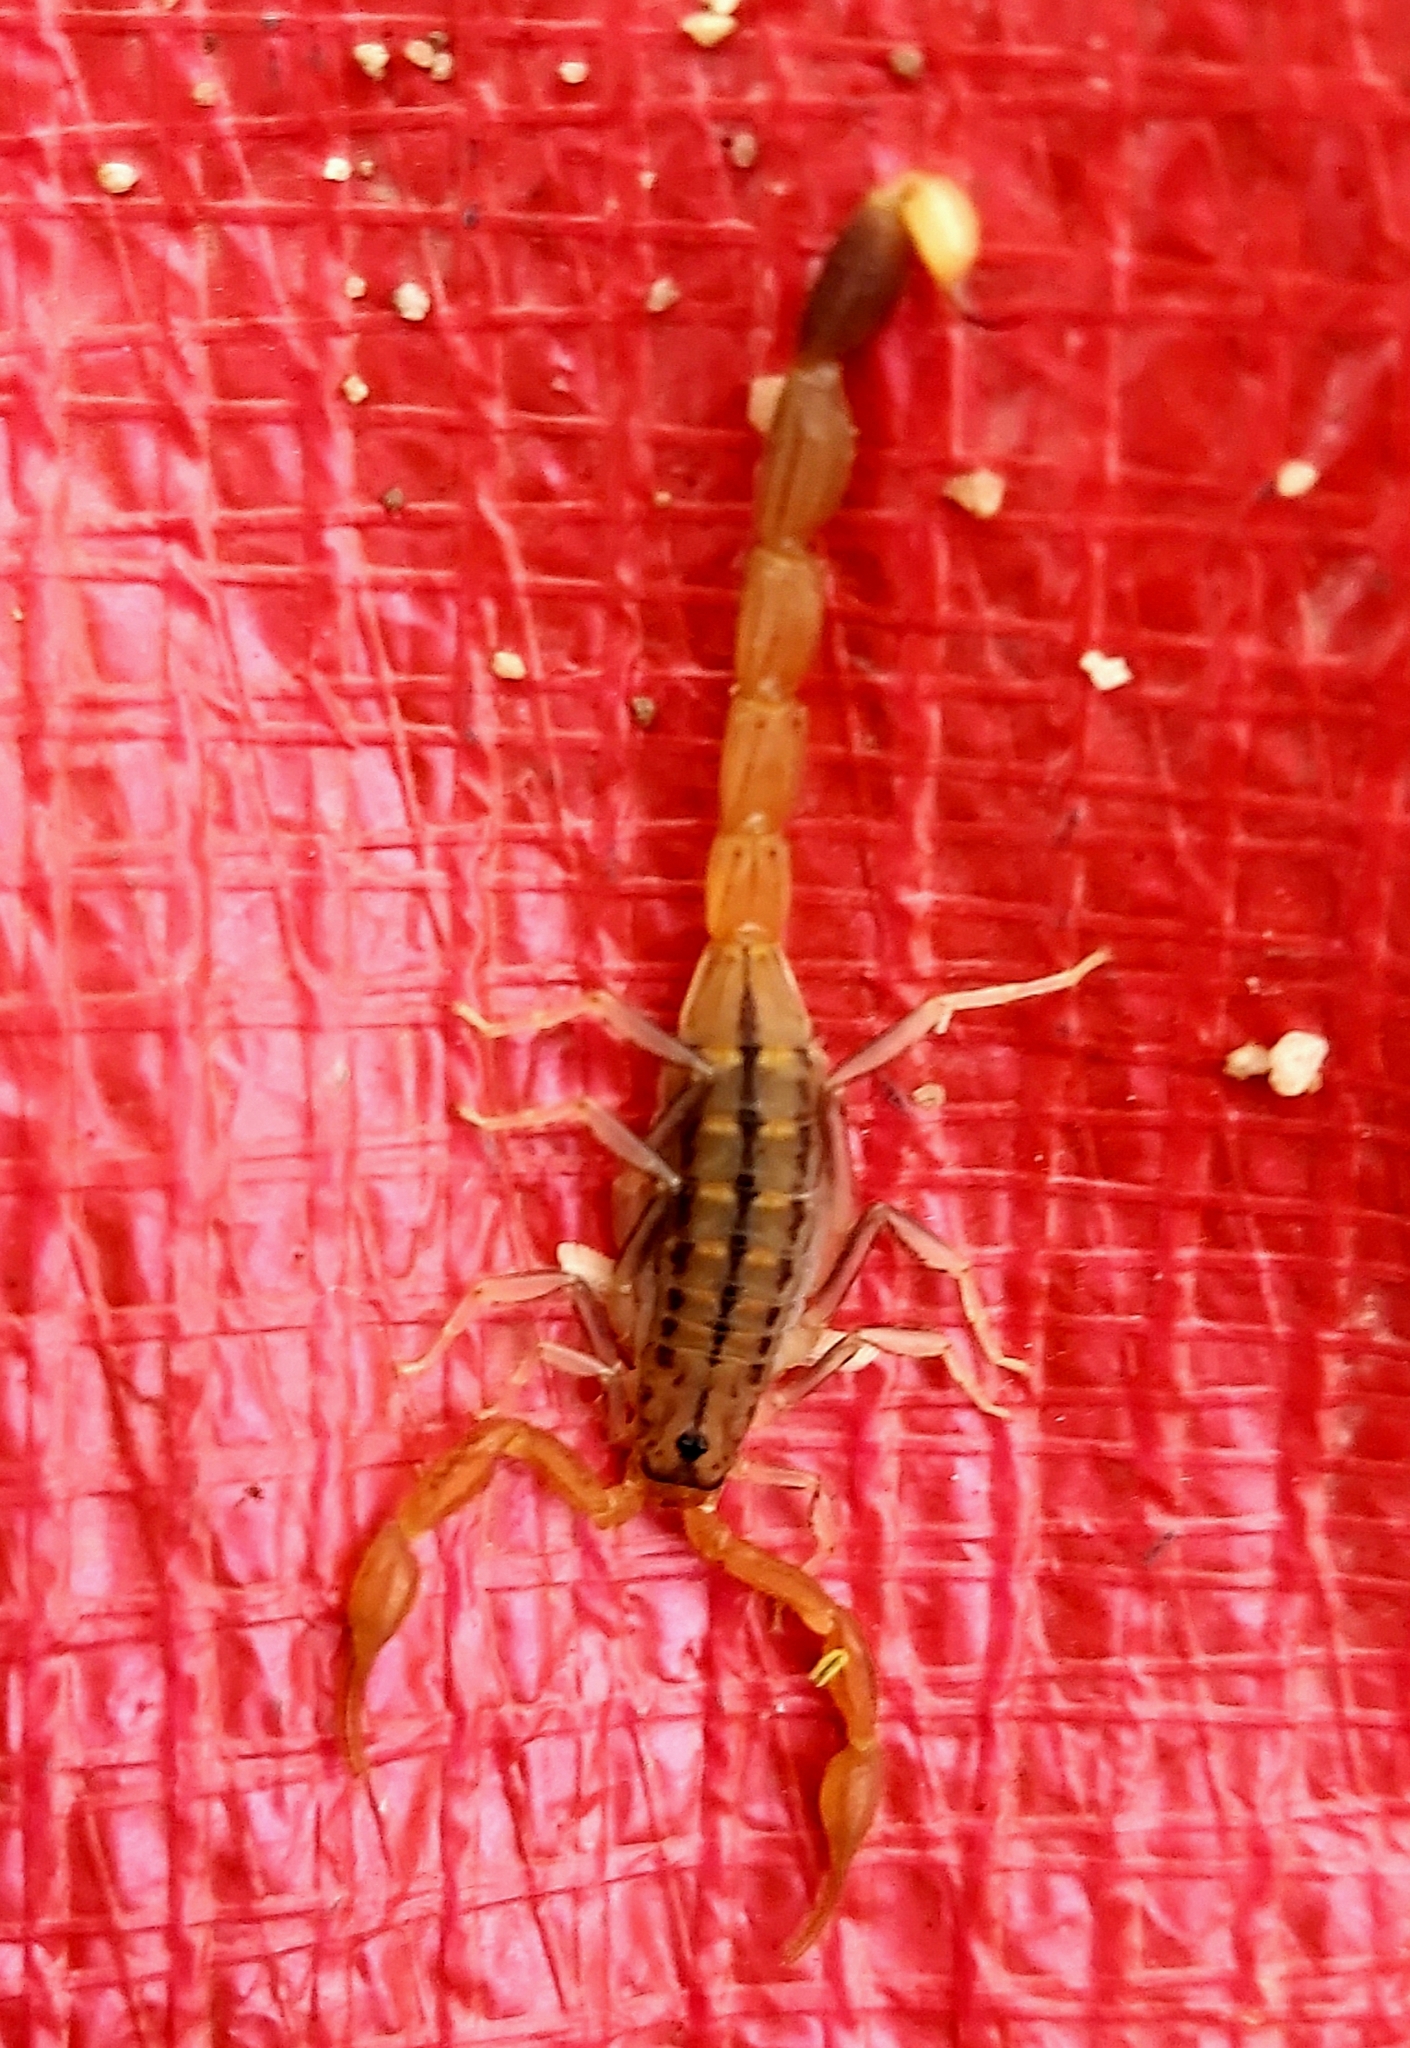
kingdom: Animalia
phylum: Arthropoda
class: Arachnida
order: Scorpiones
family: Buthidae
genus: Uroplectes
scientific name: Uroplectes carinatus
